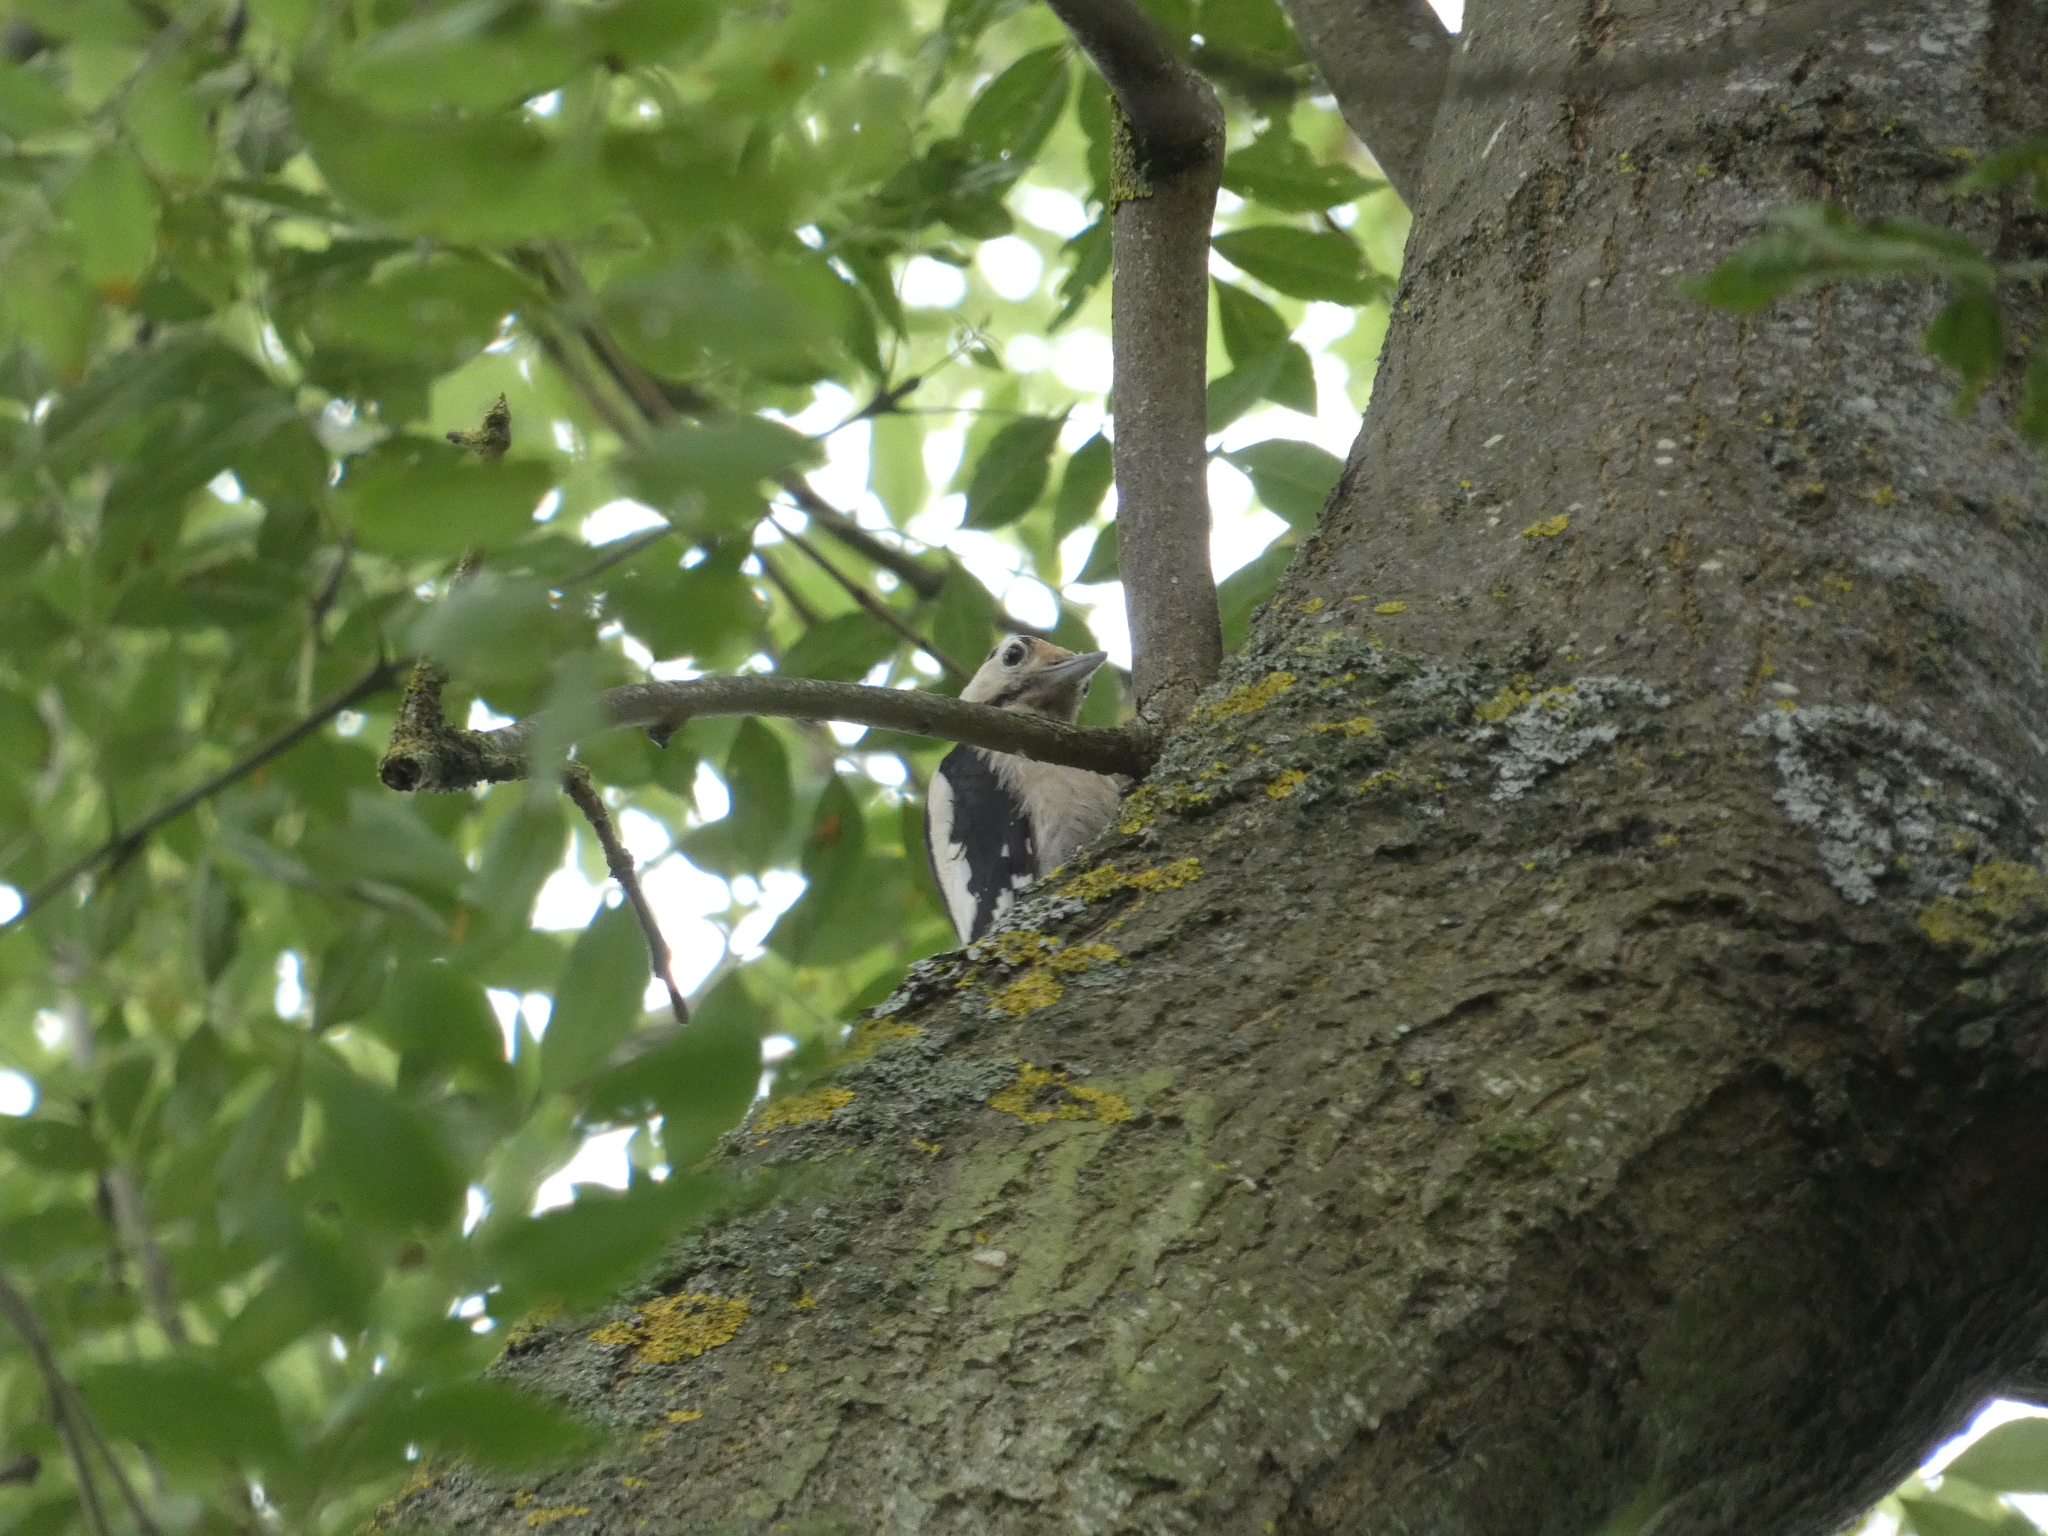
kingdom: Animalia
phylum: Chordata
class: Aves
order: Piciformes
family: Picidae
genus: Dendrocopos
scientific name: Dendrocopos major
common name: Great spotted woodpecker
